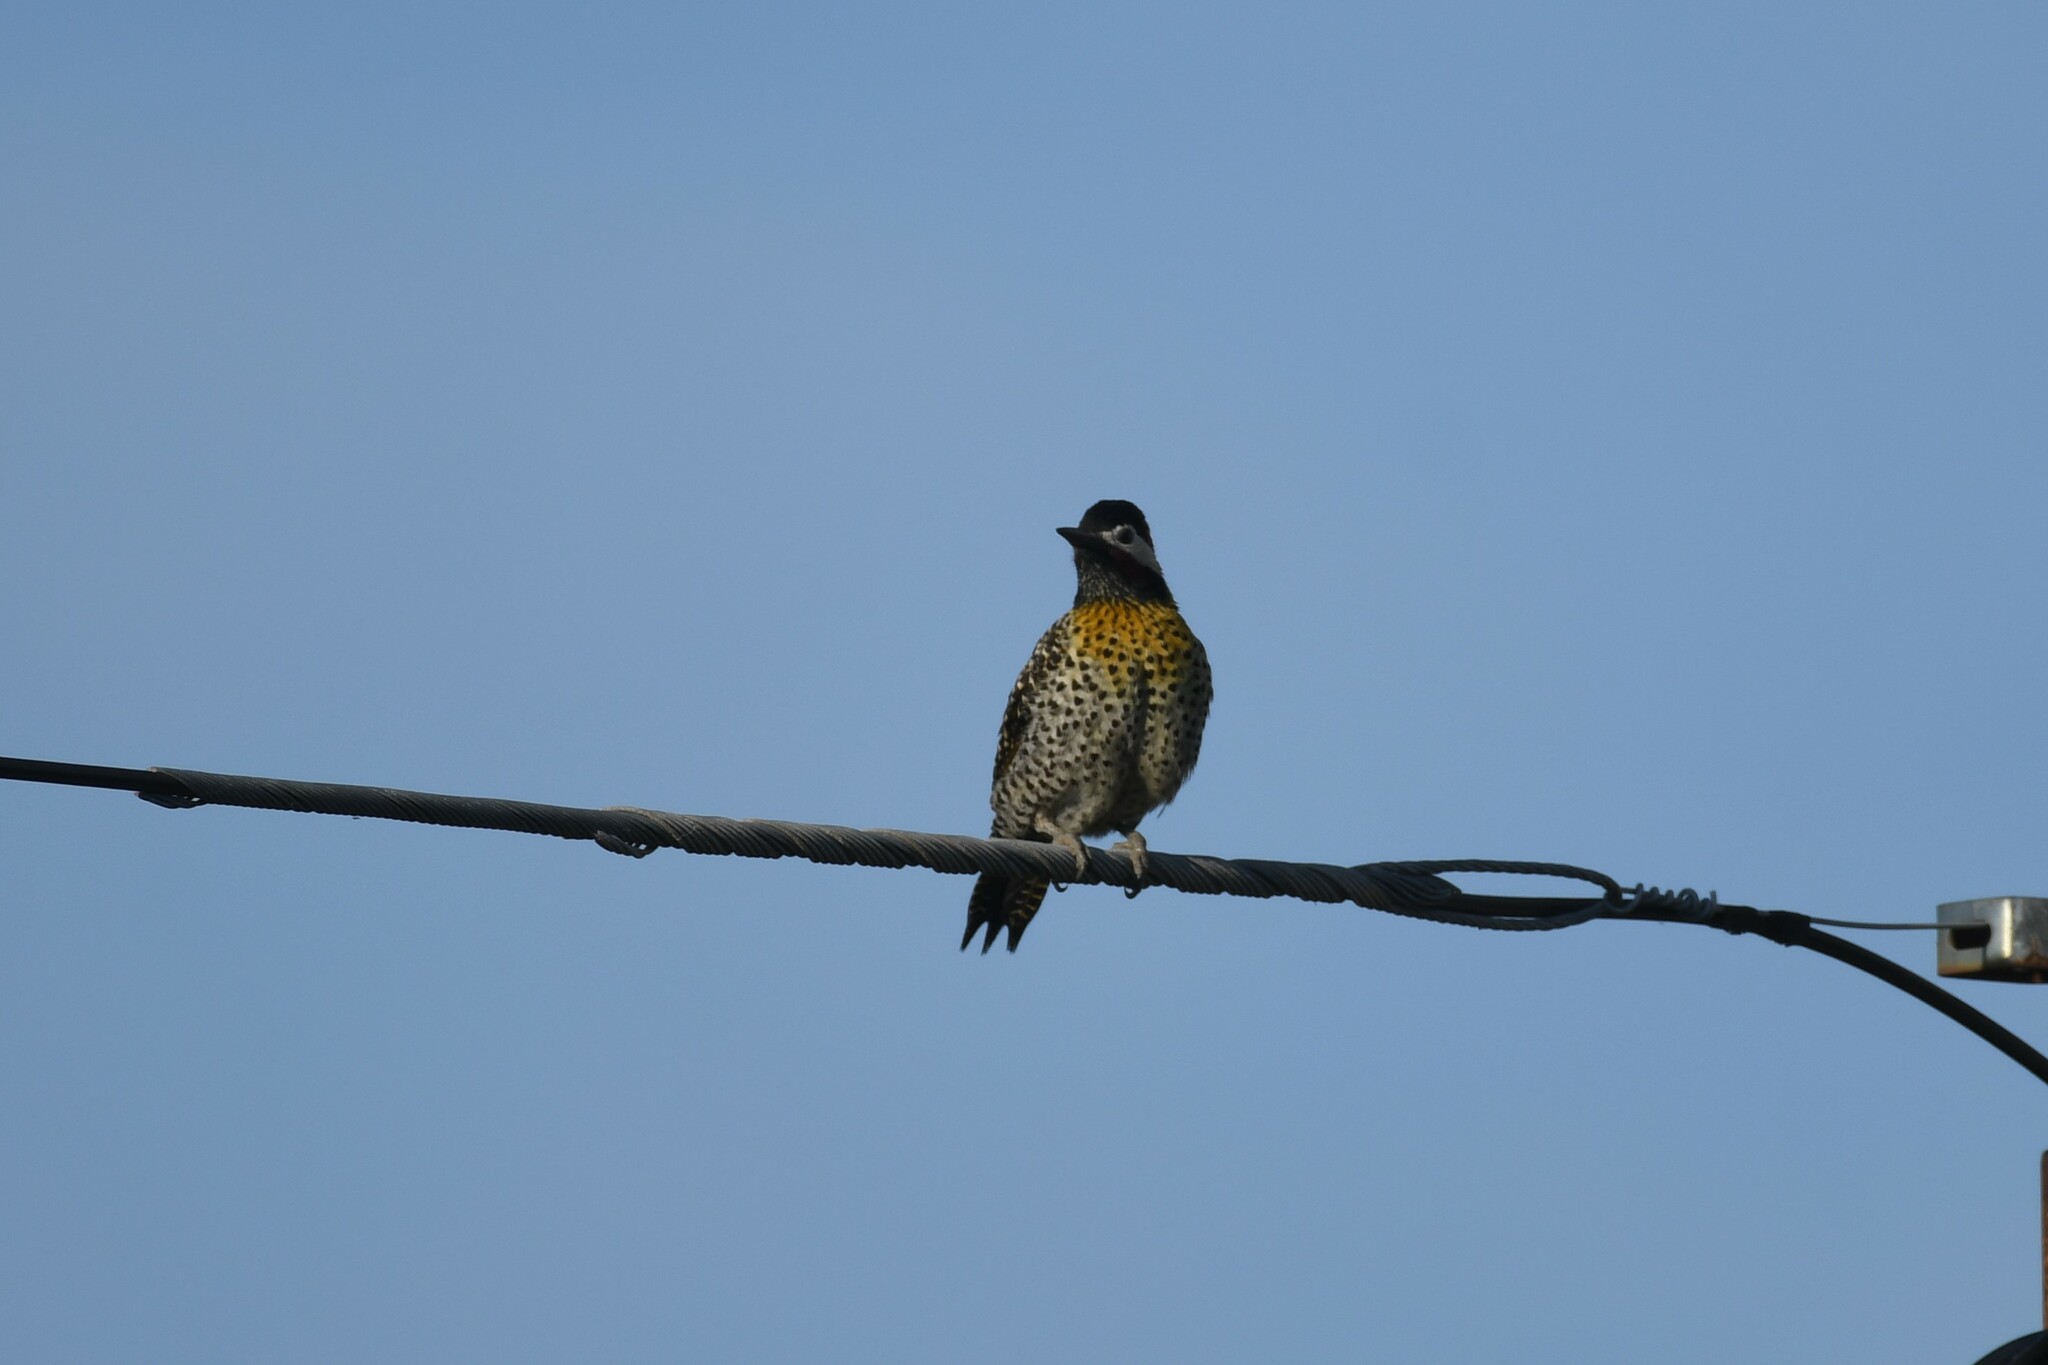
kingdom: Animalia
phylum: Chordata
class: Aves
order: Piciformes
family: Picidae
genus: Colaptes
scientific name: Colaptes melanochloros
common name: Green-barred woodpecker
